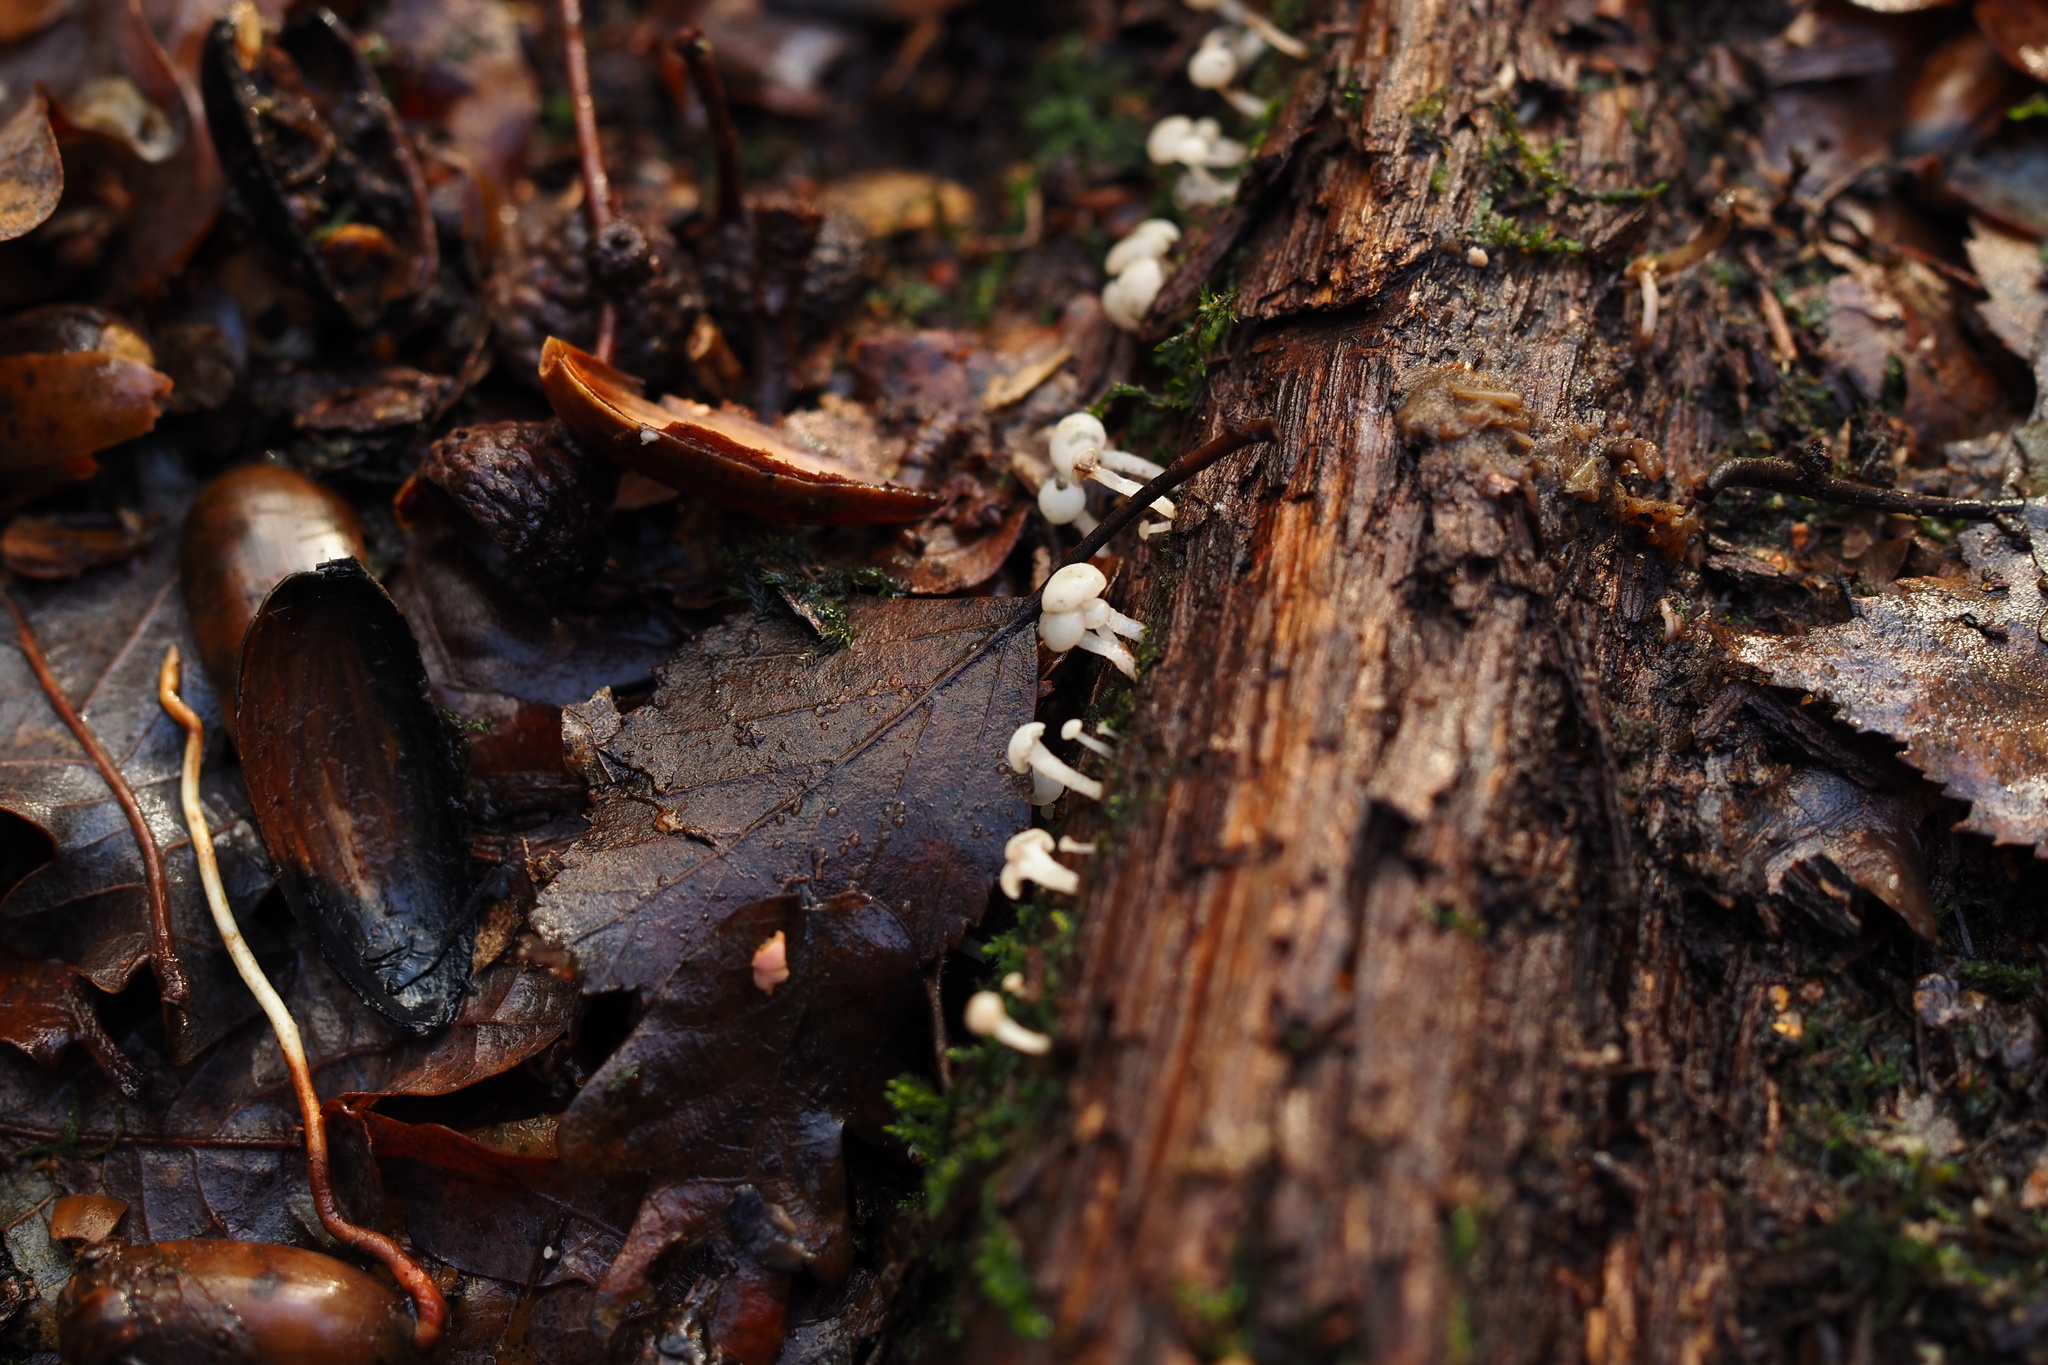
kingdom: Fungi
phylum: Ascomycota
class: Leotiomycetes
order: Helotiales
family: Tricladiaceae
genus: Cudoniella
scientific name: Cudoniella acicularis
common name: Oak pin
